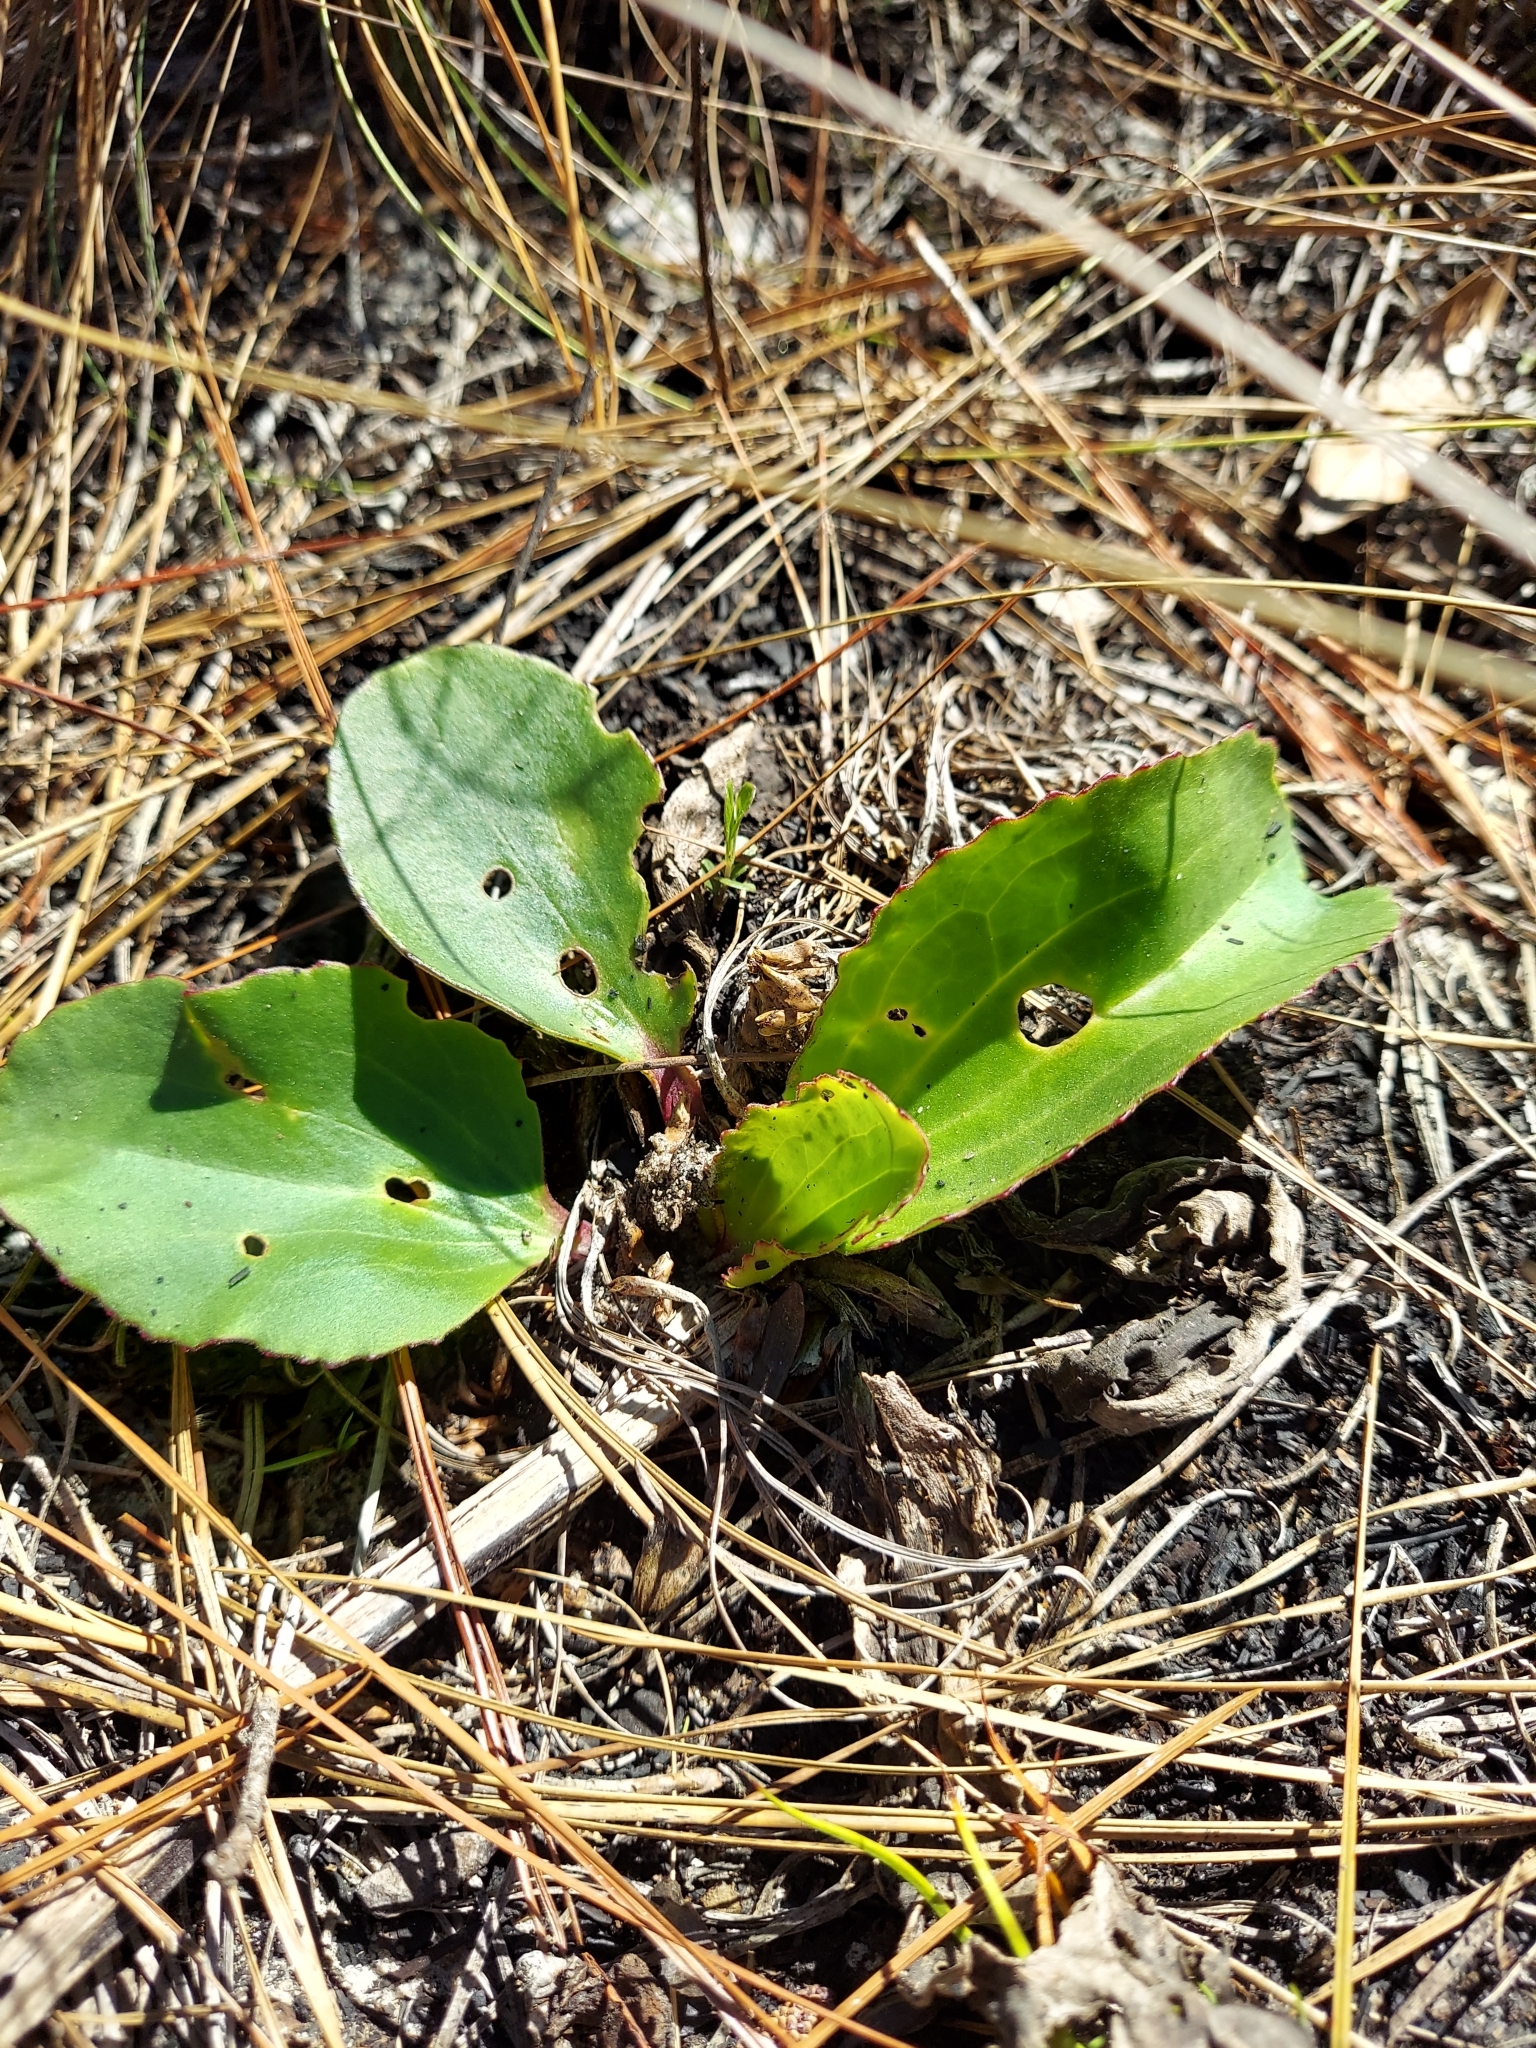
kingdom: Plantae
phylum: Tracheophyta
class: Magnoliopsida
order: Asterales
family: Asteraceae
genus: Arnoglossum
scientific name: Arnoglossum floridanum
